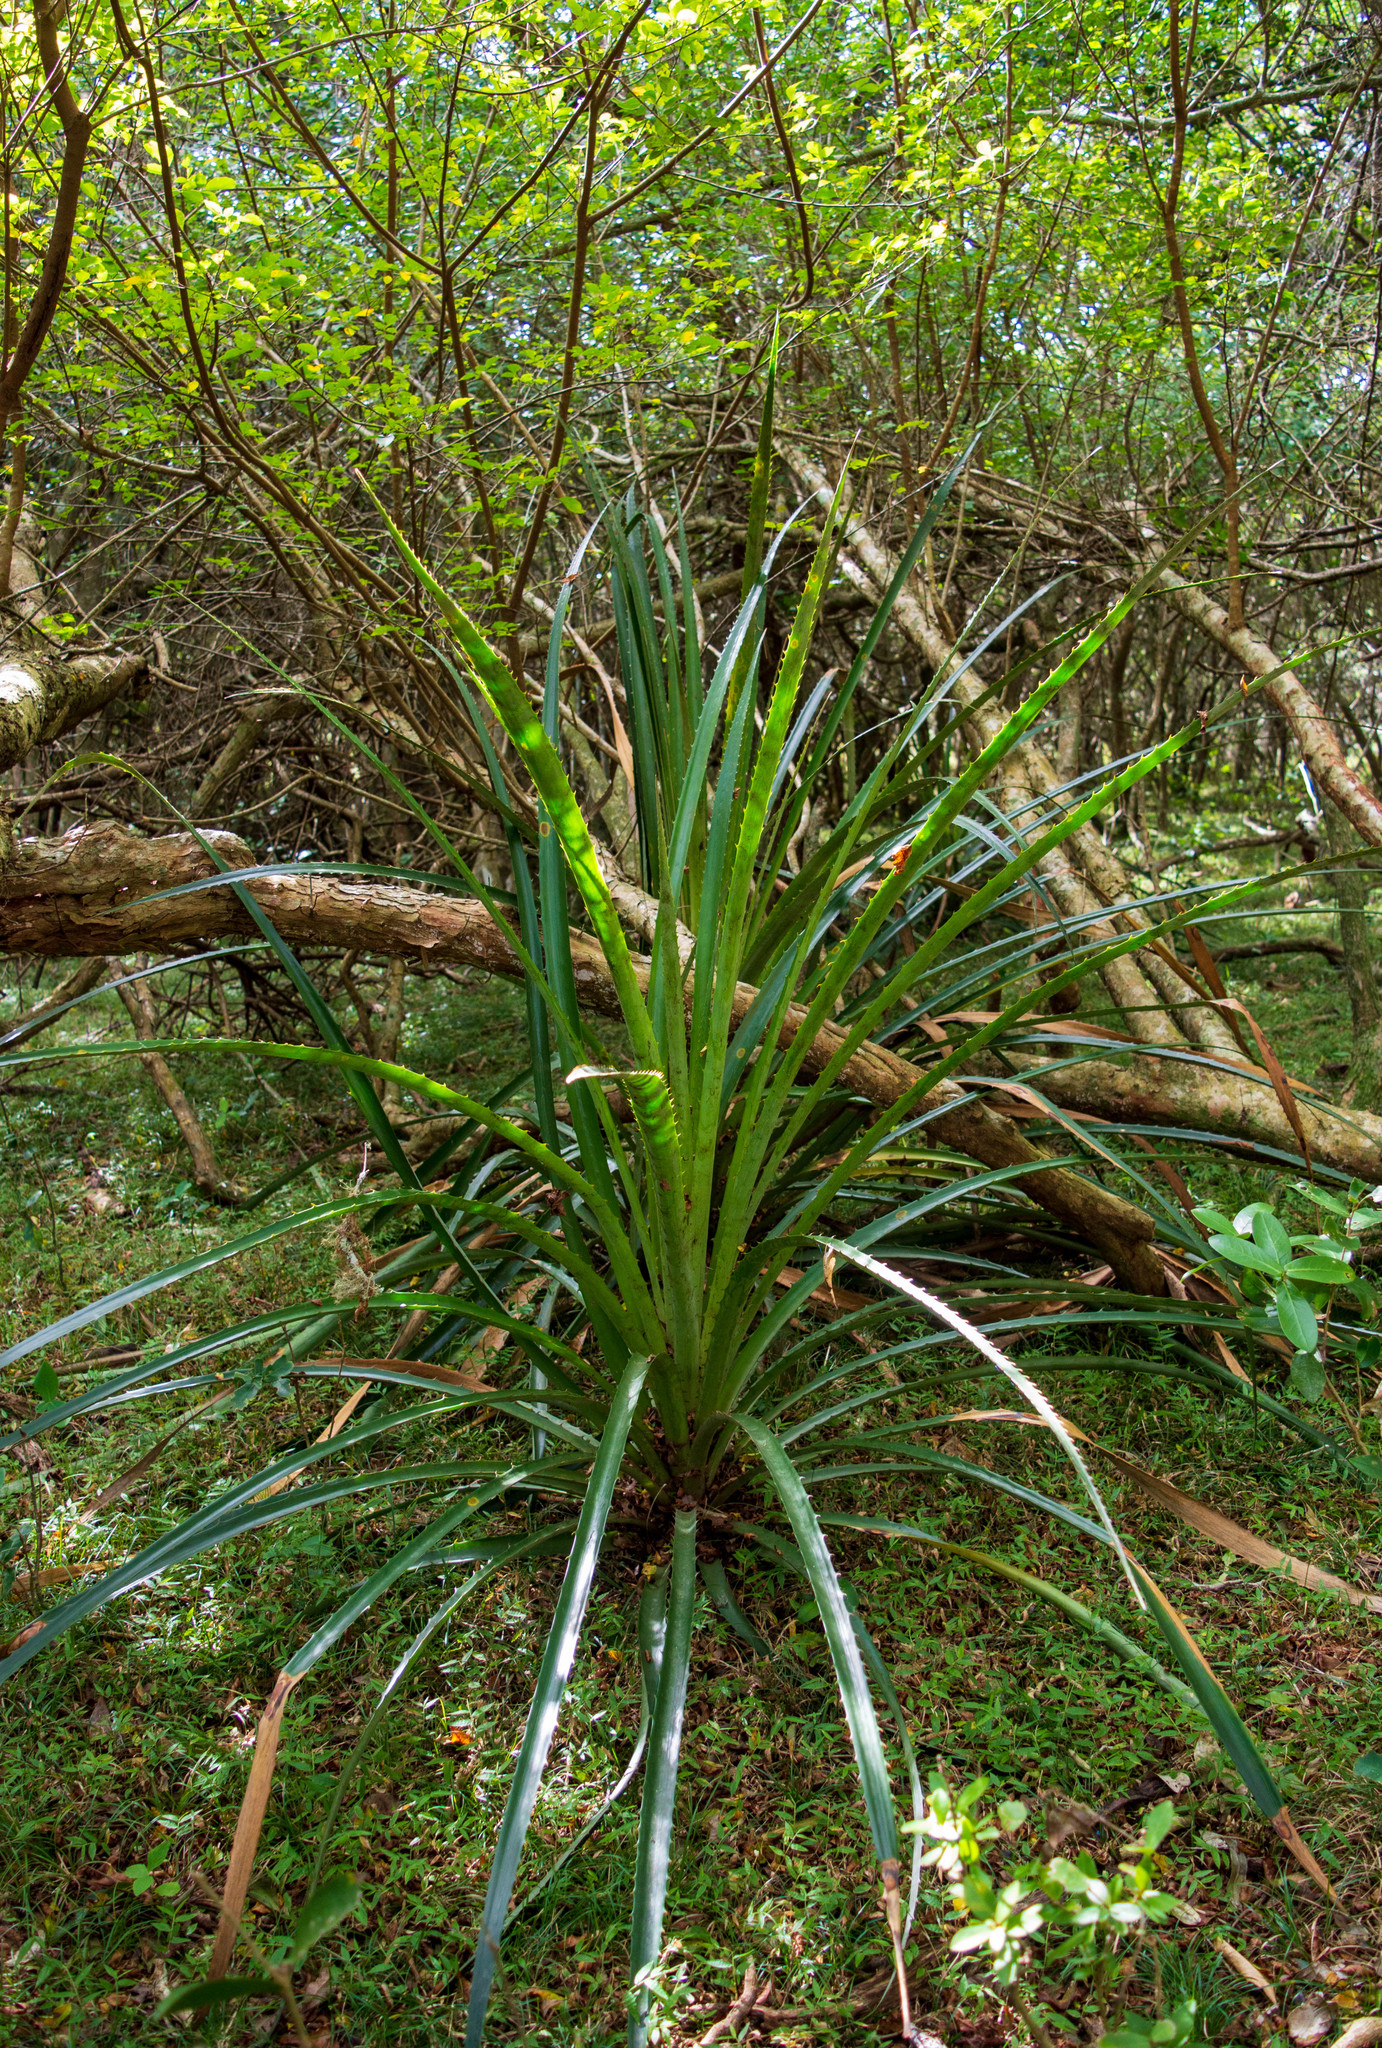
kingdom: Plantae
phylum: Tracheophyta
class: Liliopsida
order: Poales
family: Bromeliaceae
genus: Bromelia
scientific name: Bromelia antiacantha
